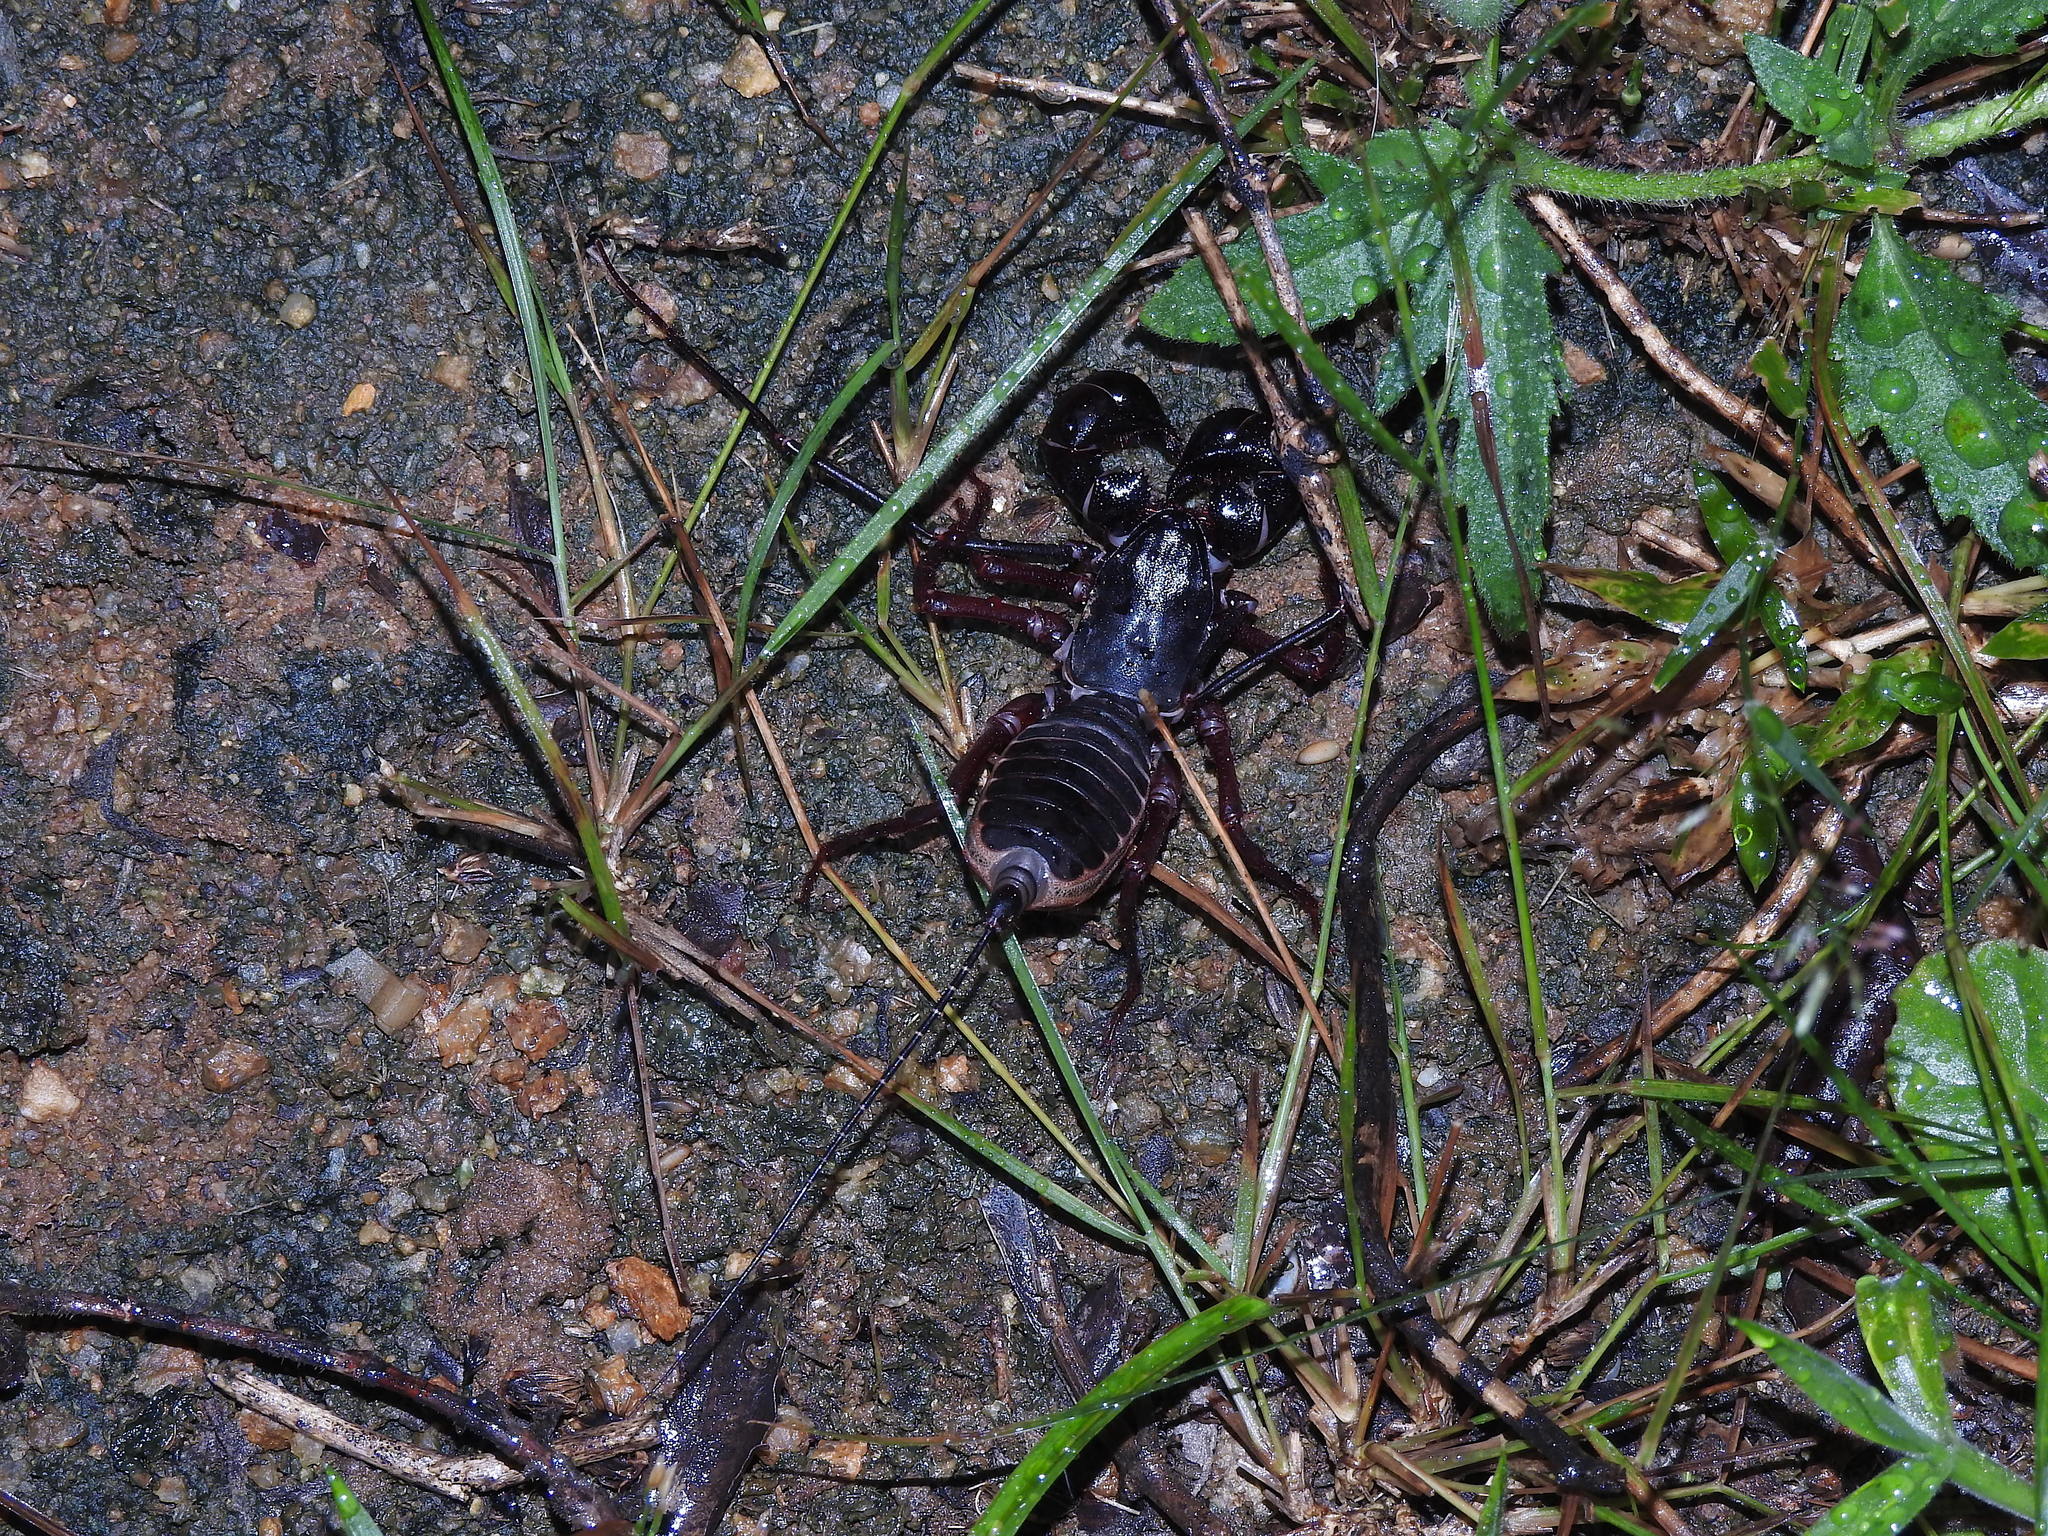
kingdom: Animalia
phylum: Arthropoda
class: Arachnida
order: Uropygi
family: Thelyphonidae
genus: Thelyphonus
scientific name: Thelyphonus sepiaris
